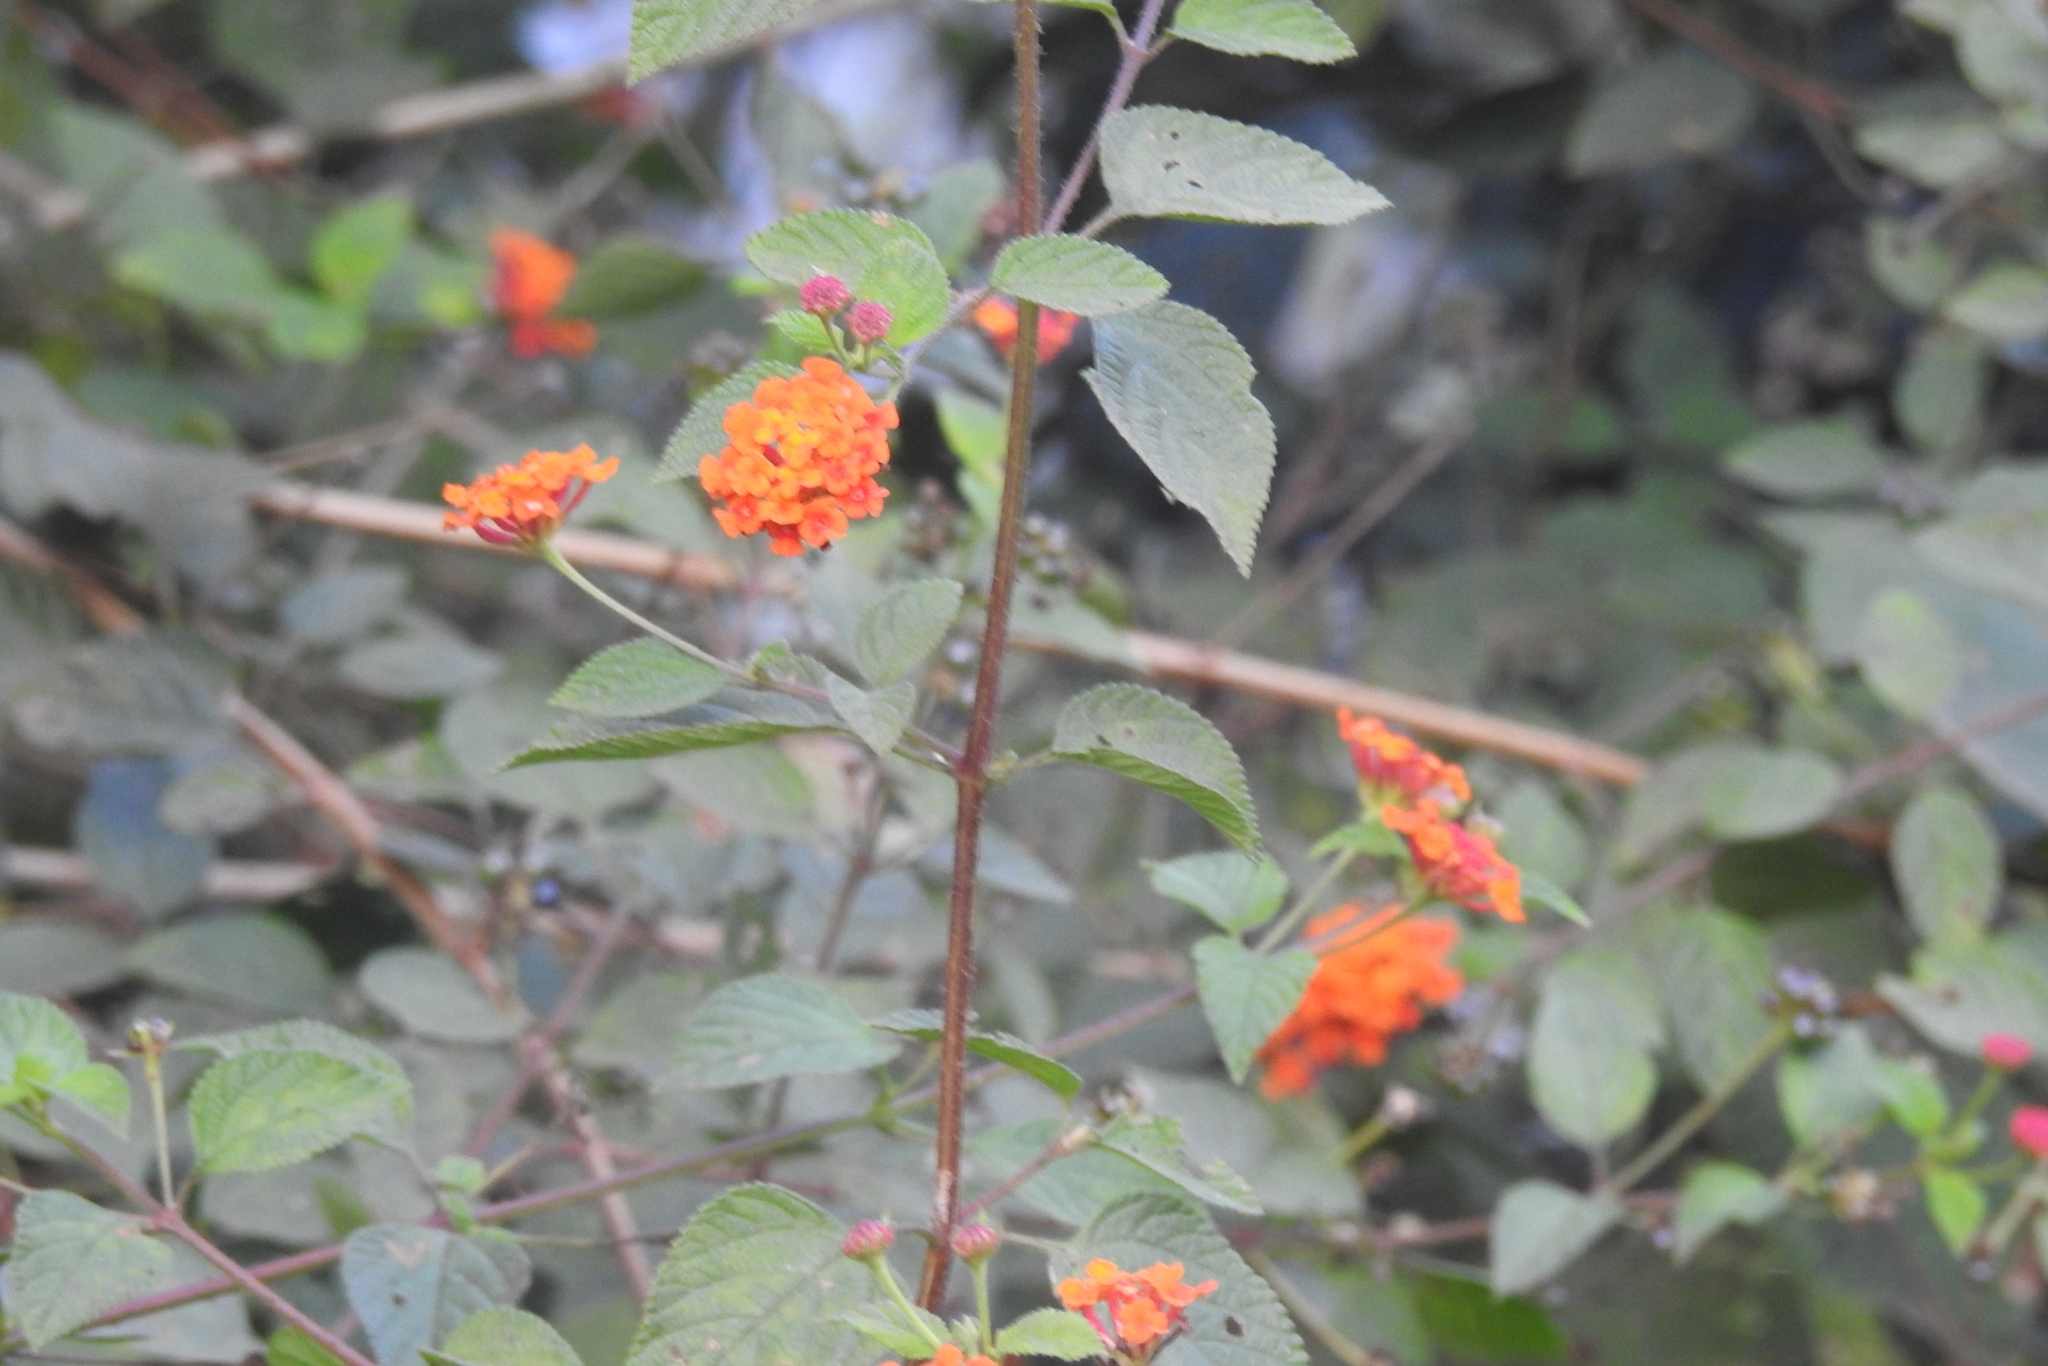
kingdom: Plantae
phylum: Tracheophyta
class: Magnoliopsida
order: Lamiales
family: Verbenaceae
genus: Lantana
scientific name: Lantana camara
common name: Lantana
